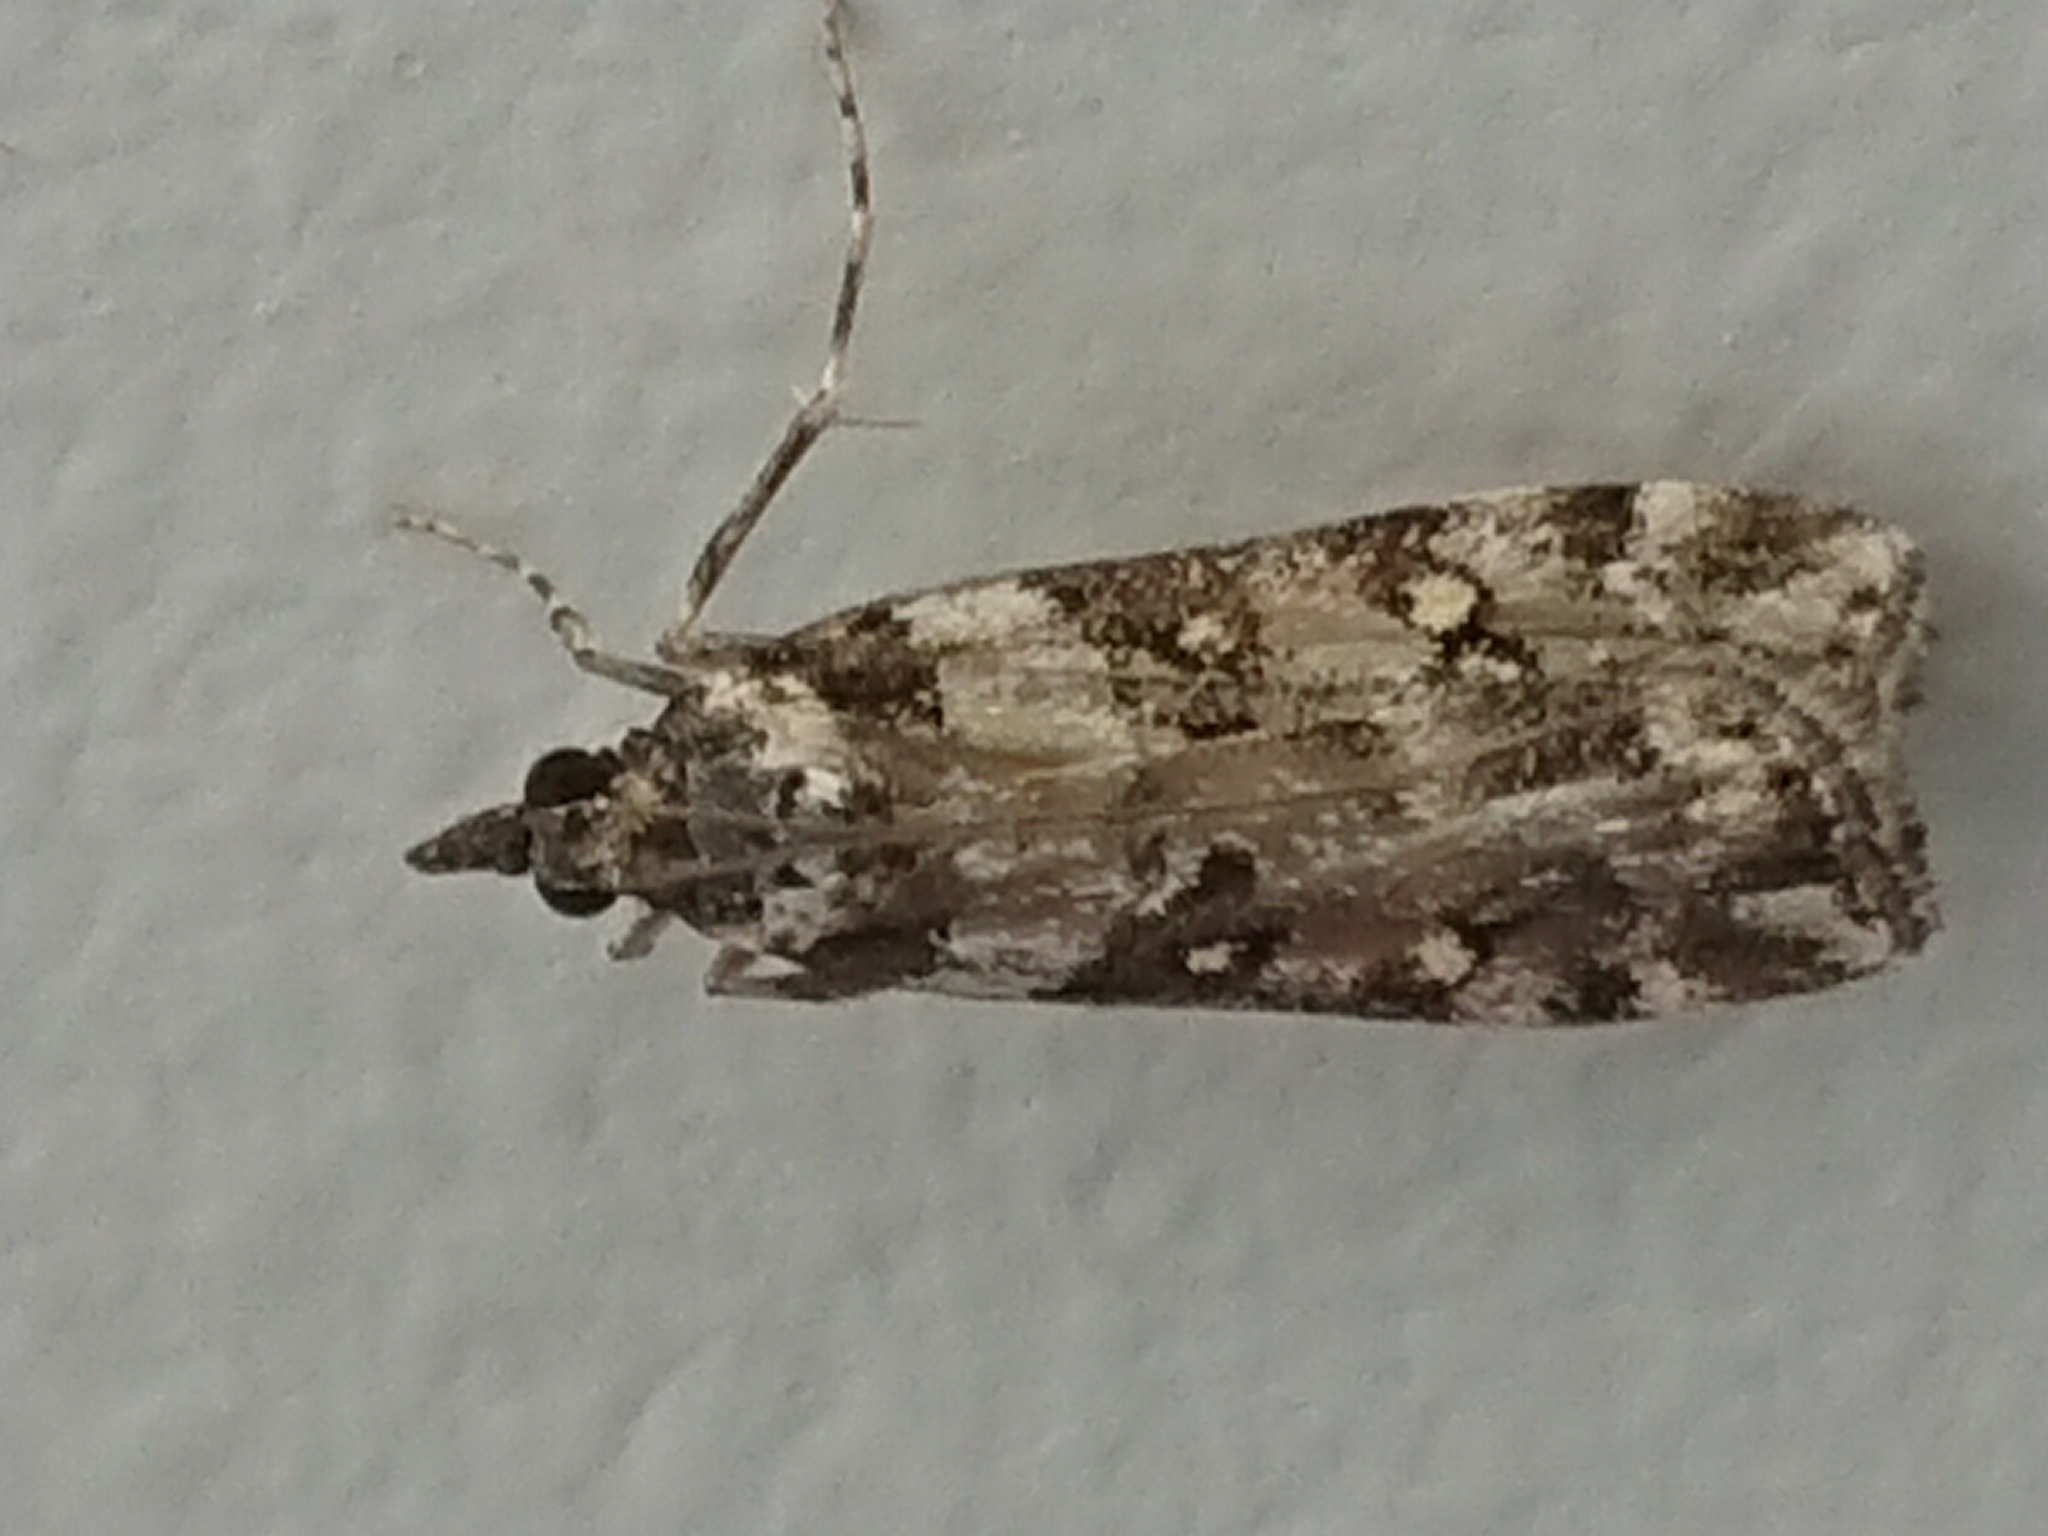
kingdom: Animalia
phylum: Arthropoda
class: Insecta
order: Lepidoptera
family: Crambidae
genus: Eudonia
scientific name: Eudonia diphtheralis
